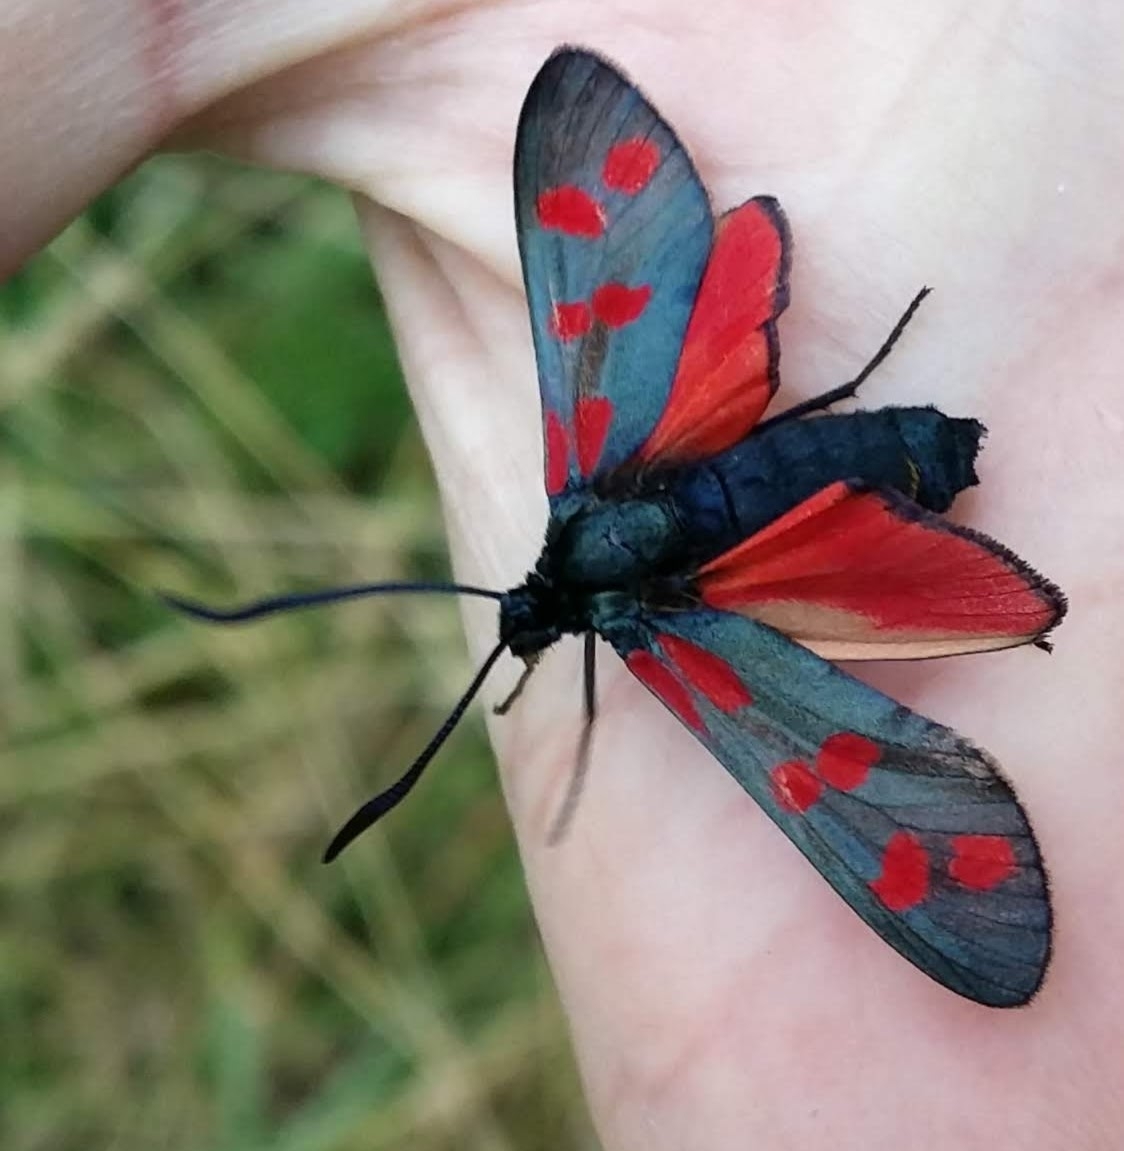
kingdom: Animalia
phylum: Arthropoda
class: Insecta
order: Lepidoptera
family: Zygaenidae
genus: Zygaena
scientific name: Zygaena filipendulae
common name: Six-spot burnet
